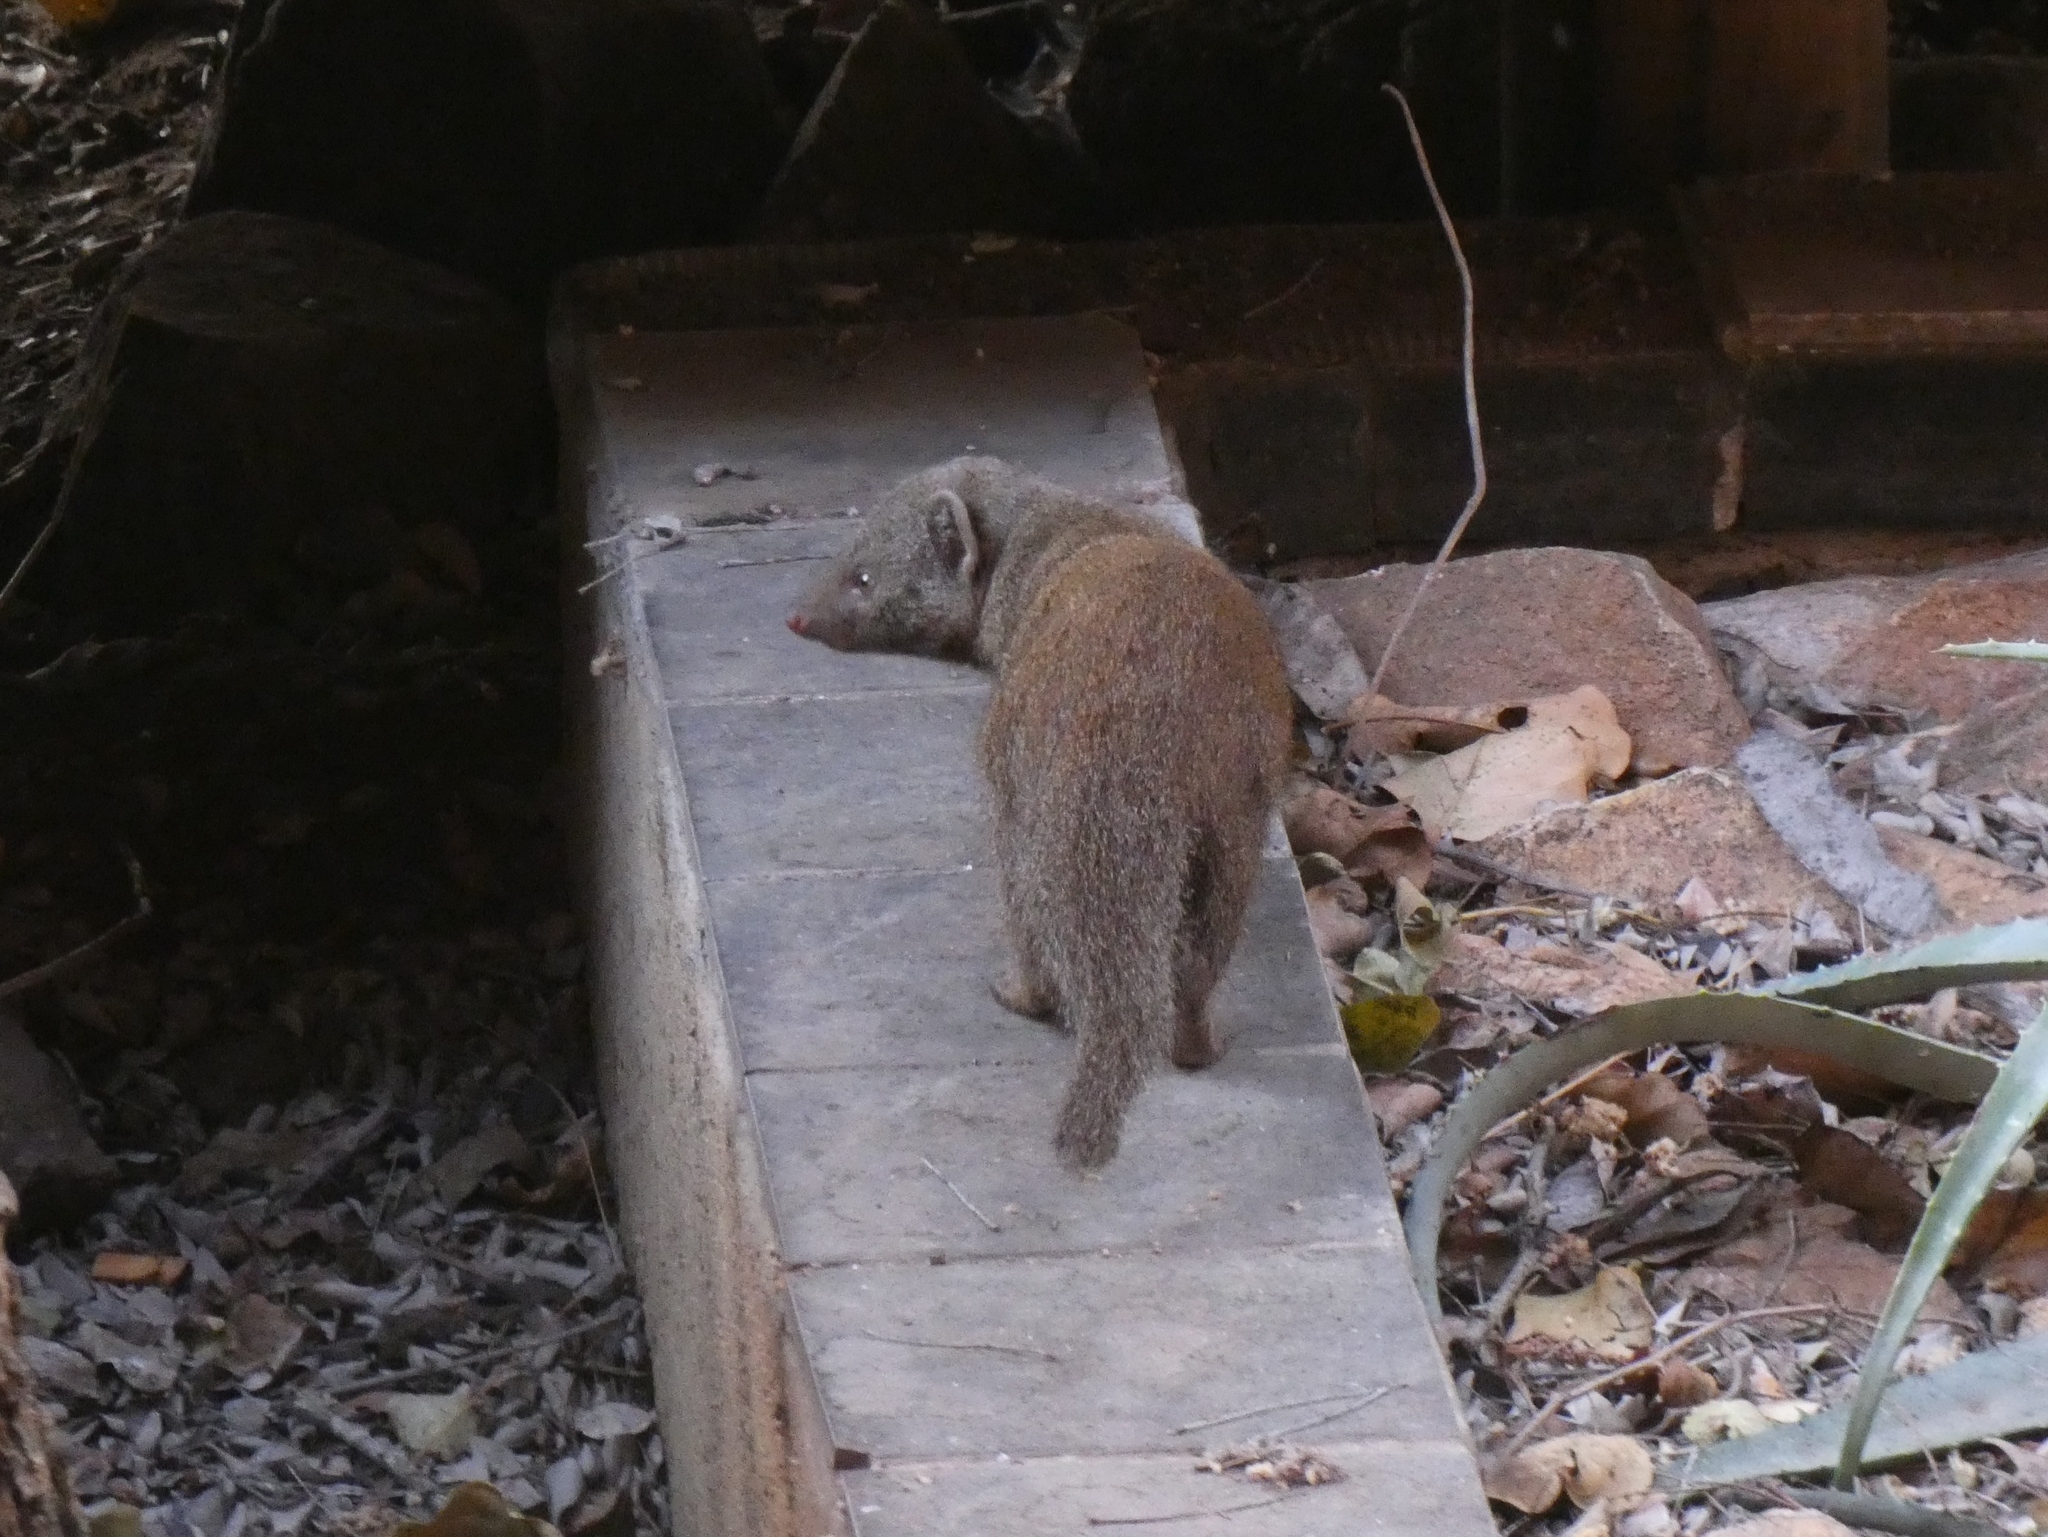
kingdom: Animalia
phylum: Chordata
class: Mammalia
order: Carnivora
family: Herpestidae
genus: Helogale
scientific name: Helogale parvula
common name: Common dwarf mongoose
